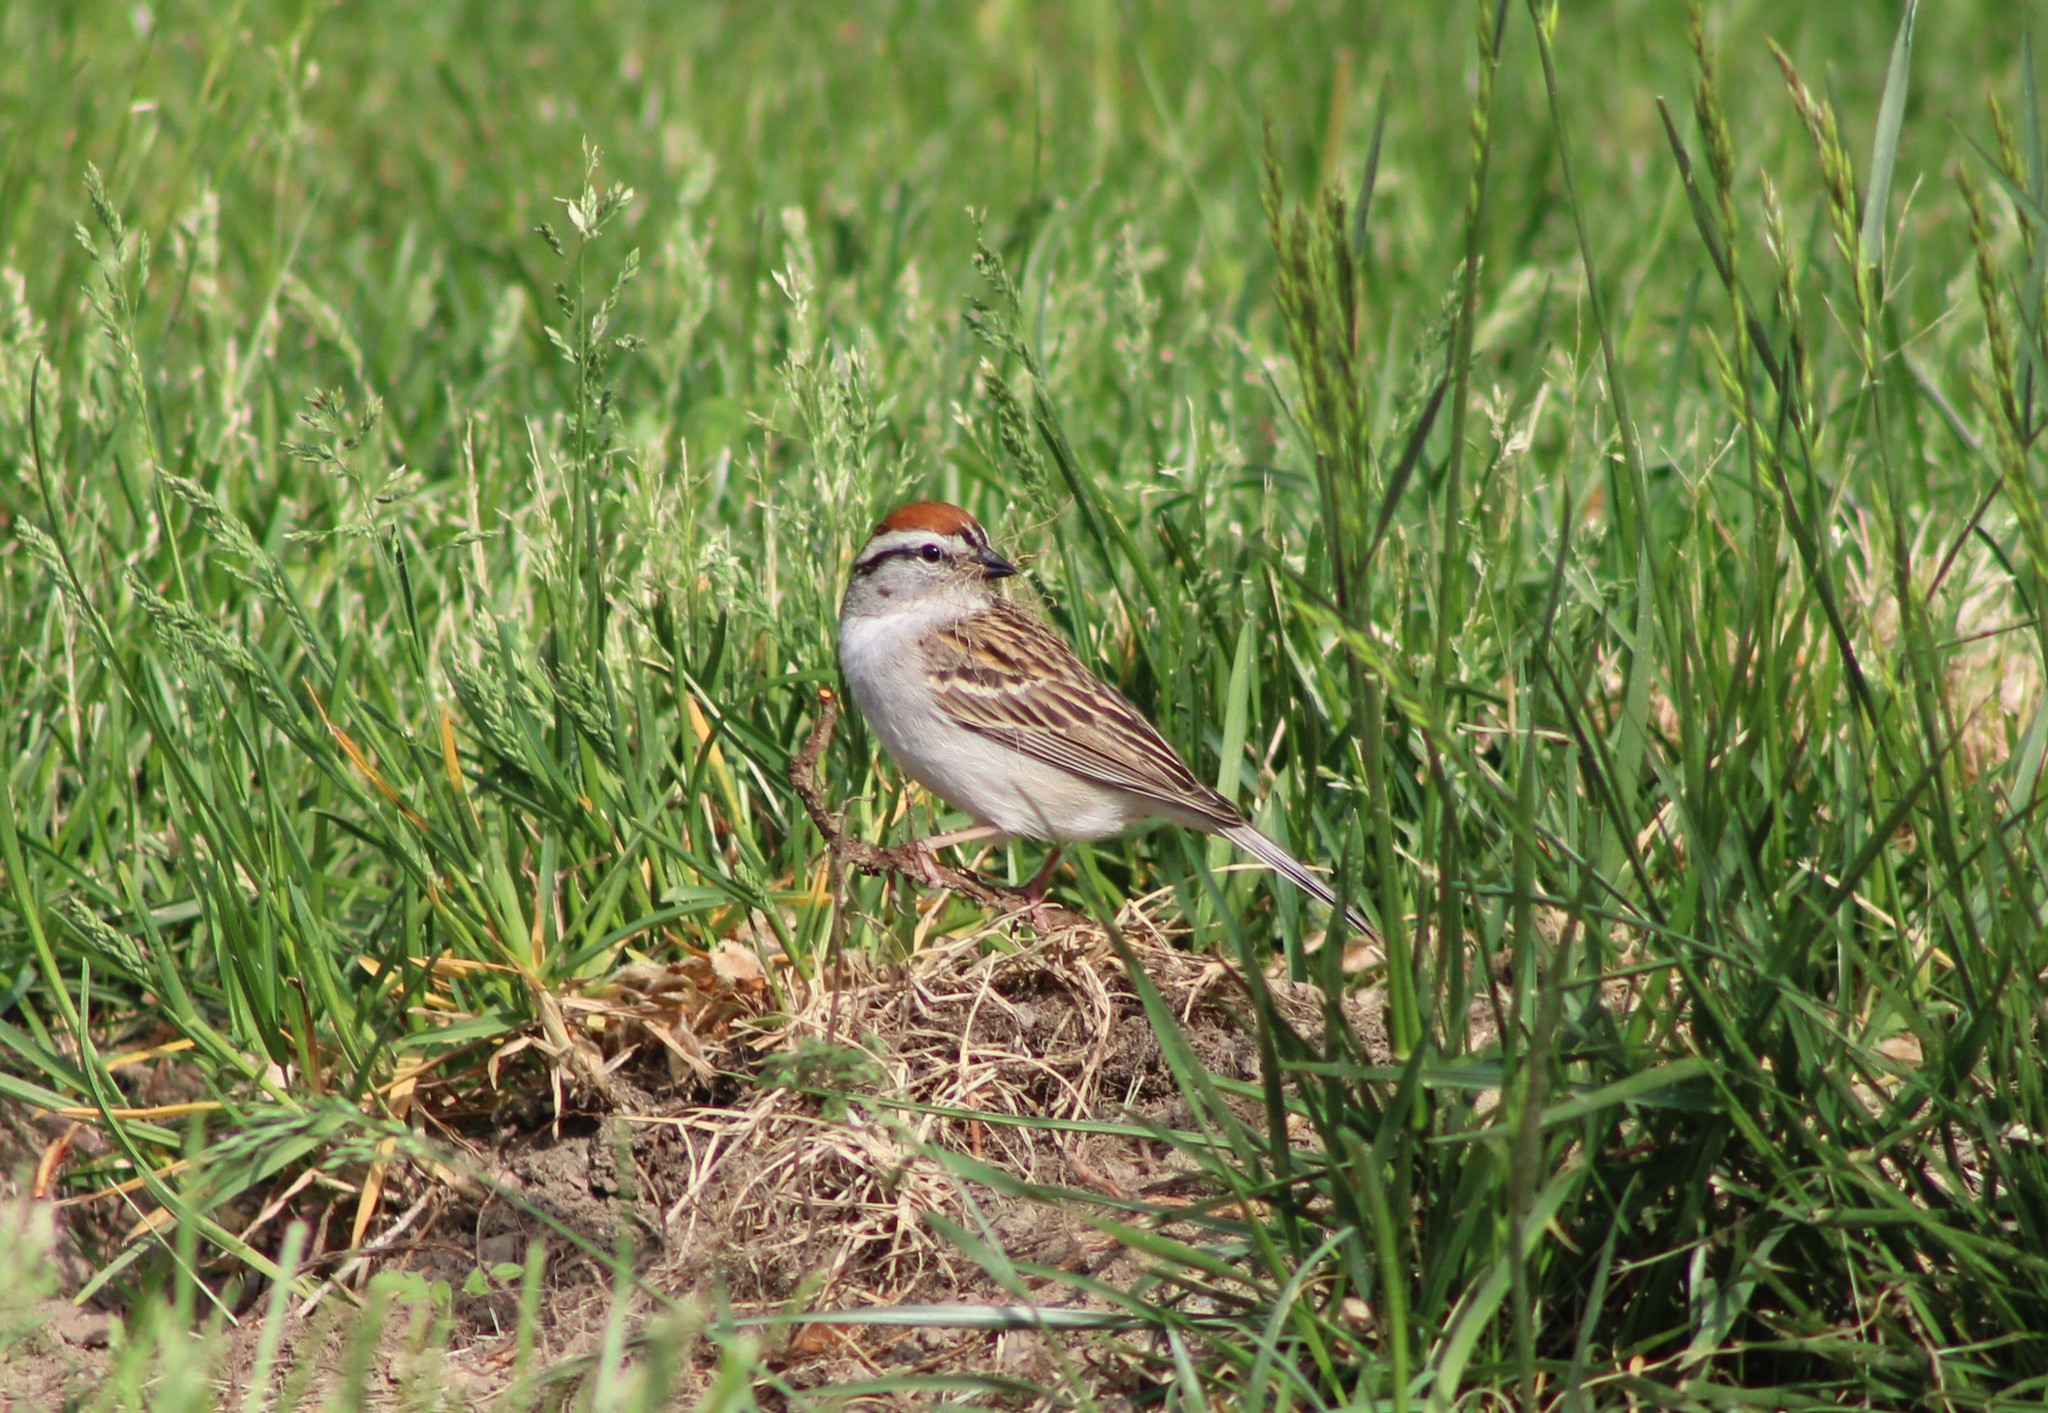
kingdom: Animalia
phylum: Chordata
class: Aves
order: Passeriformes
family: Passerellidae
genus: Spizella
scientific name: Spizella passerina
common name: Chipping sparrow
